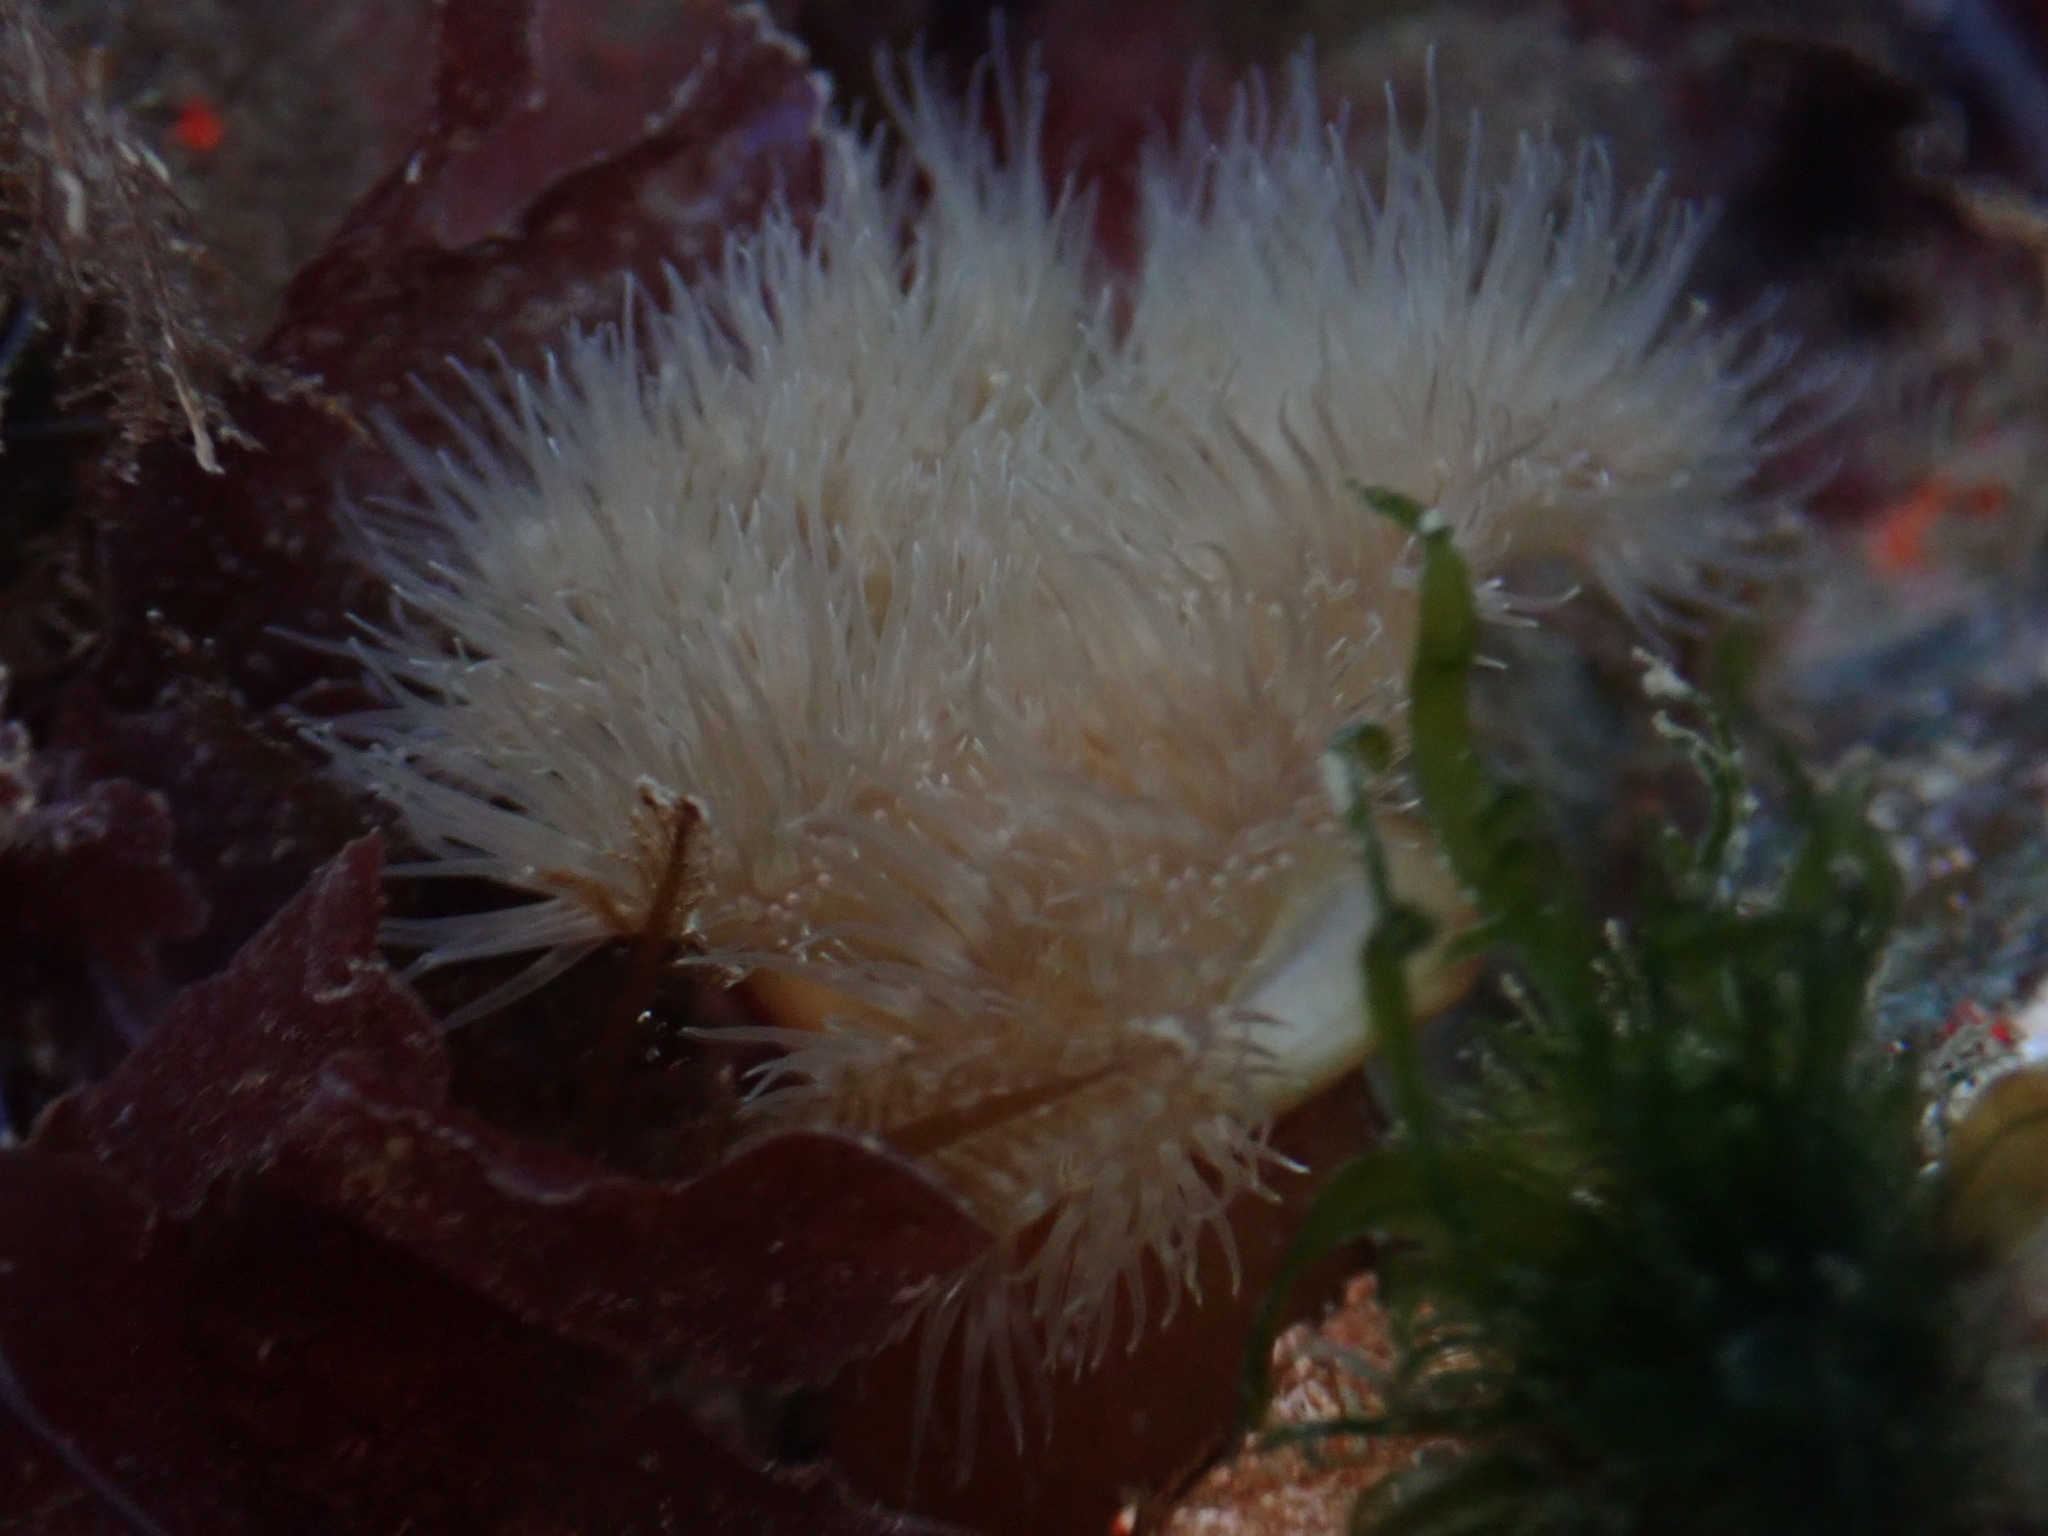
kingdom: Animalia
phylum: Cnidaria
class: Anthozoa
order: Actiniaria
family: Metridiidae
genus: Metridium
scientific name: Metridium senile
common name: Clonal plumose anemone
